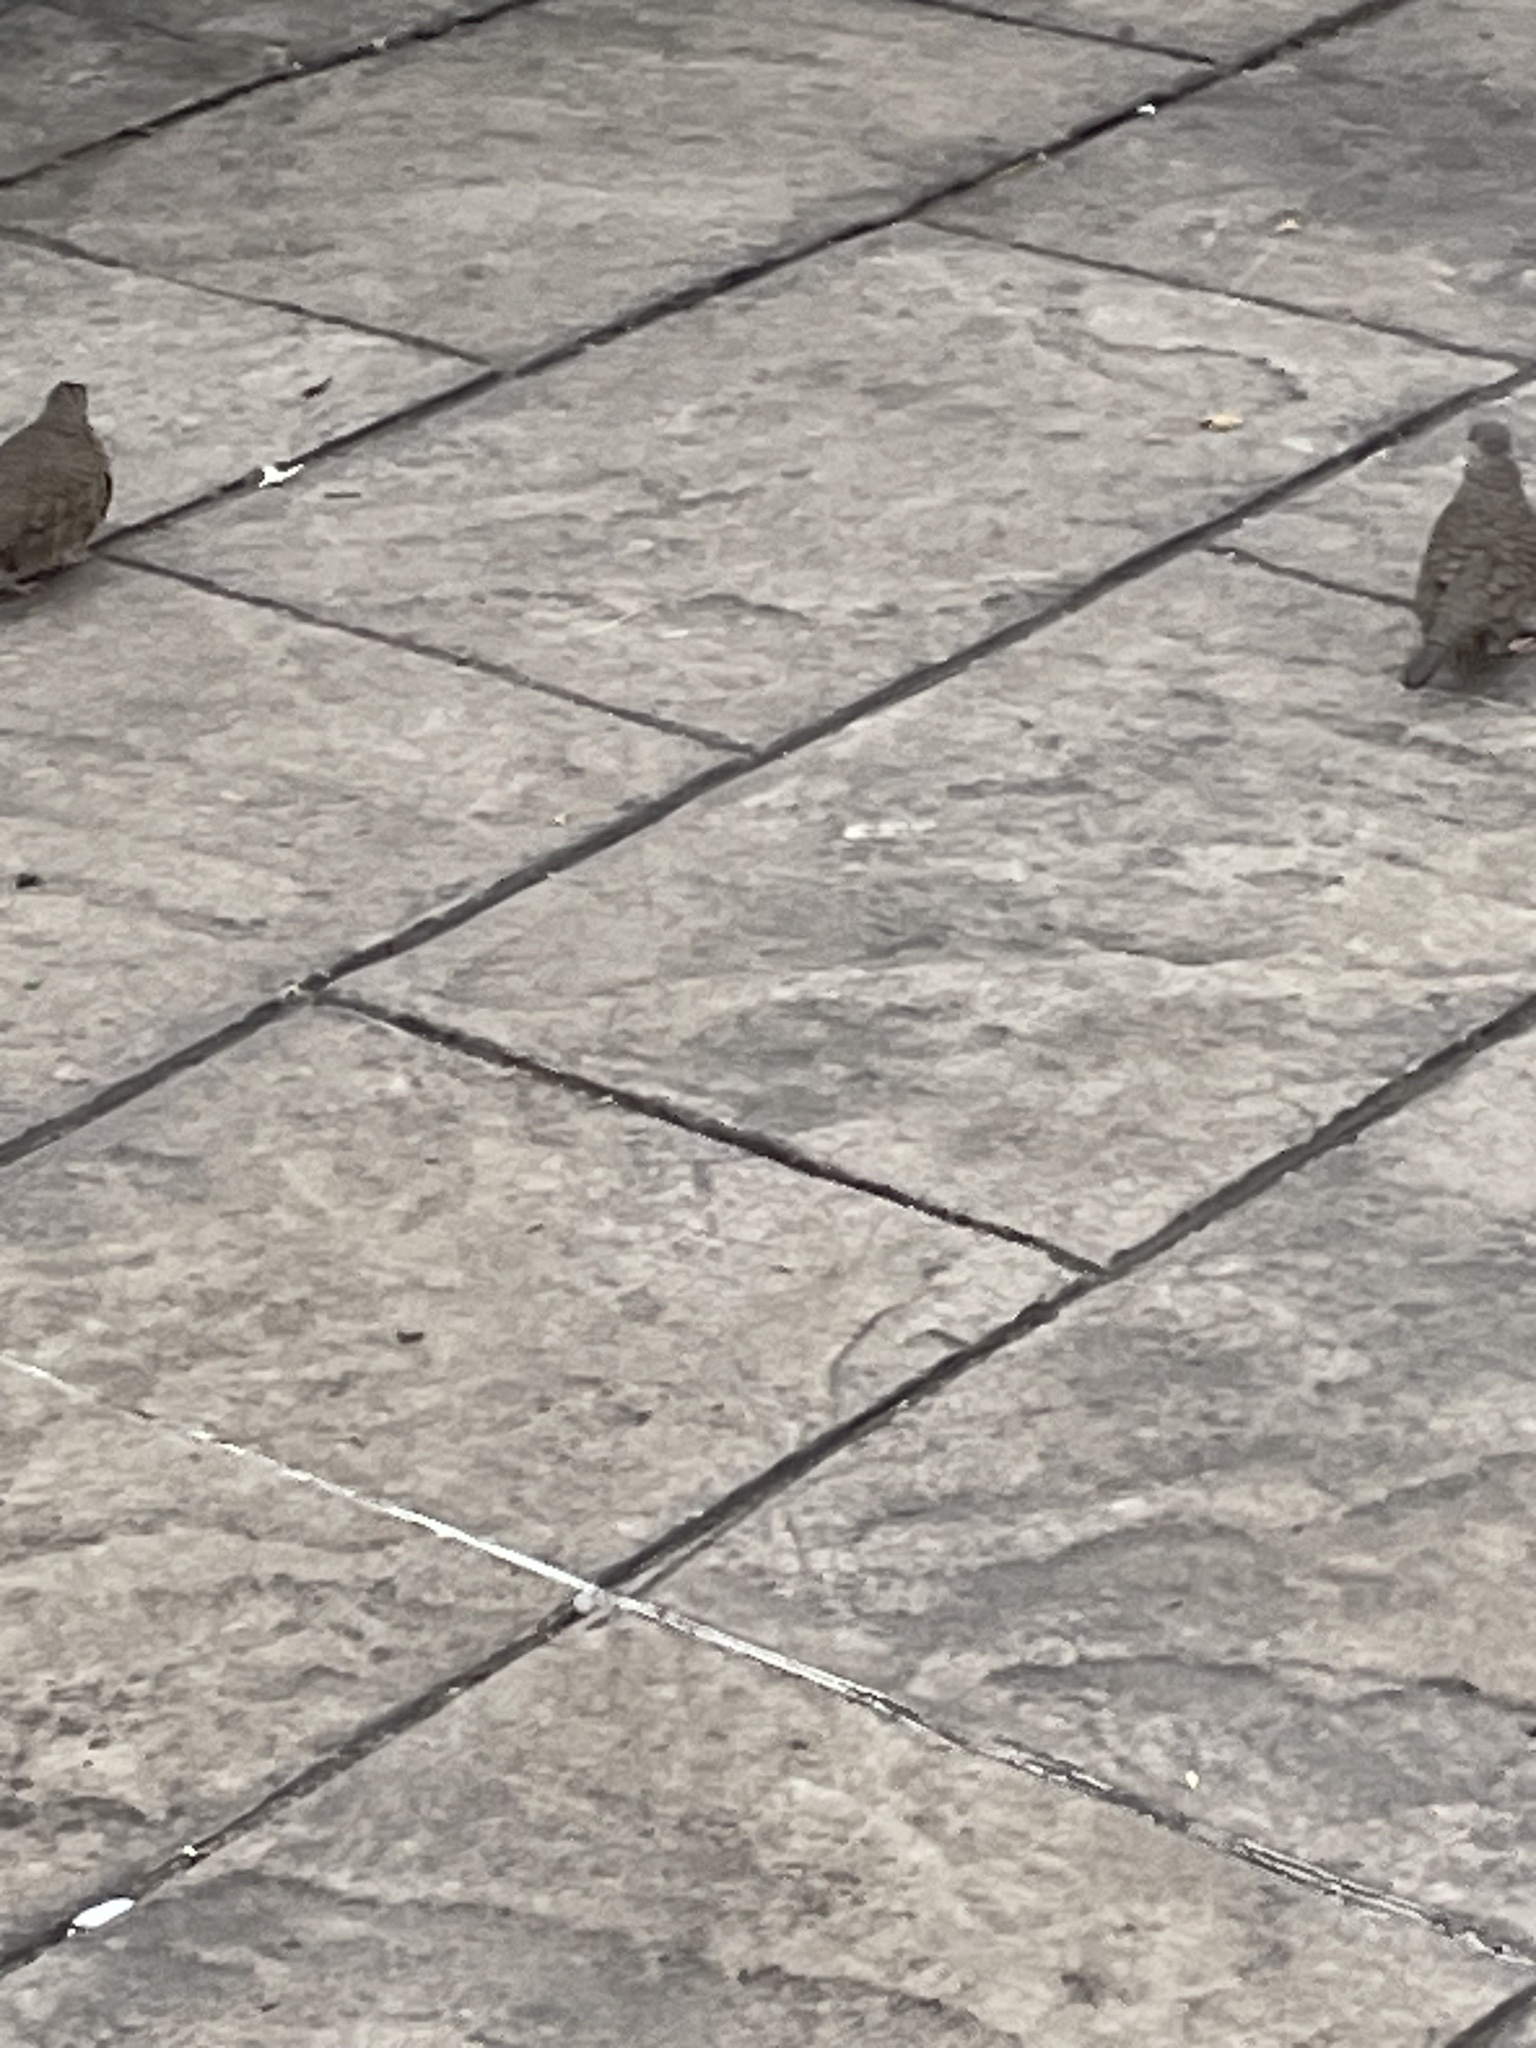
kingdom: Animalia
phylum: Chordata
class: Aves
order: Columbiformes
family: Columbidae
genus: Columbina
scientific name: Columbina inca
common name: Inca dove
